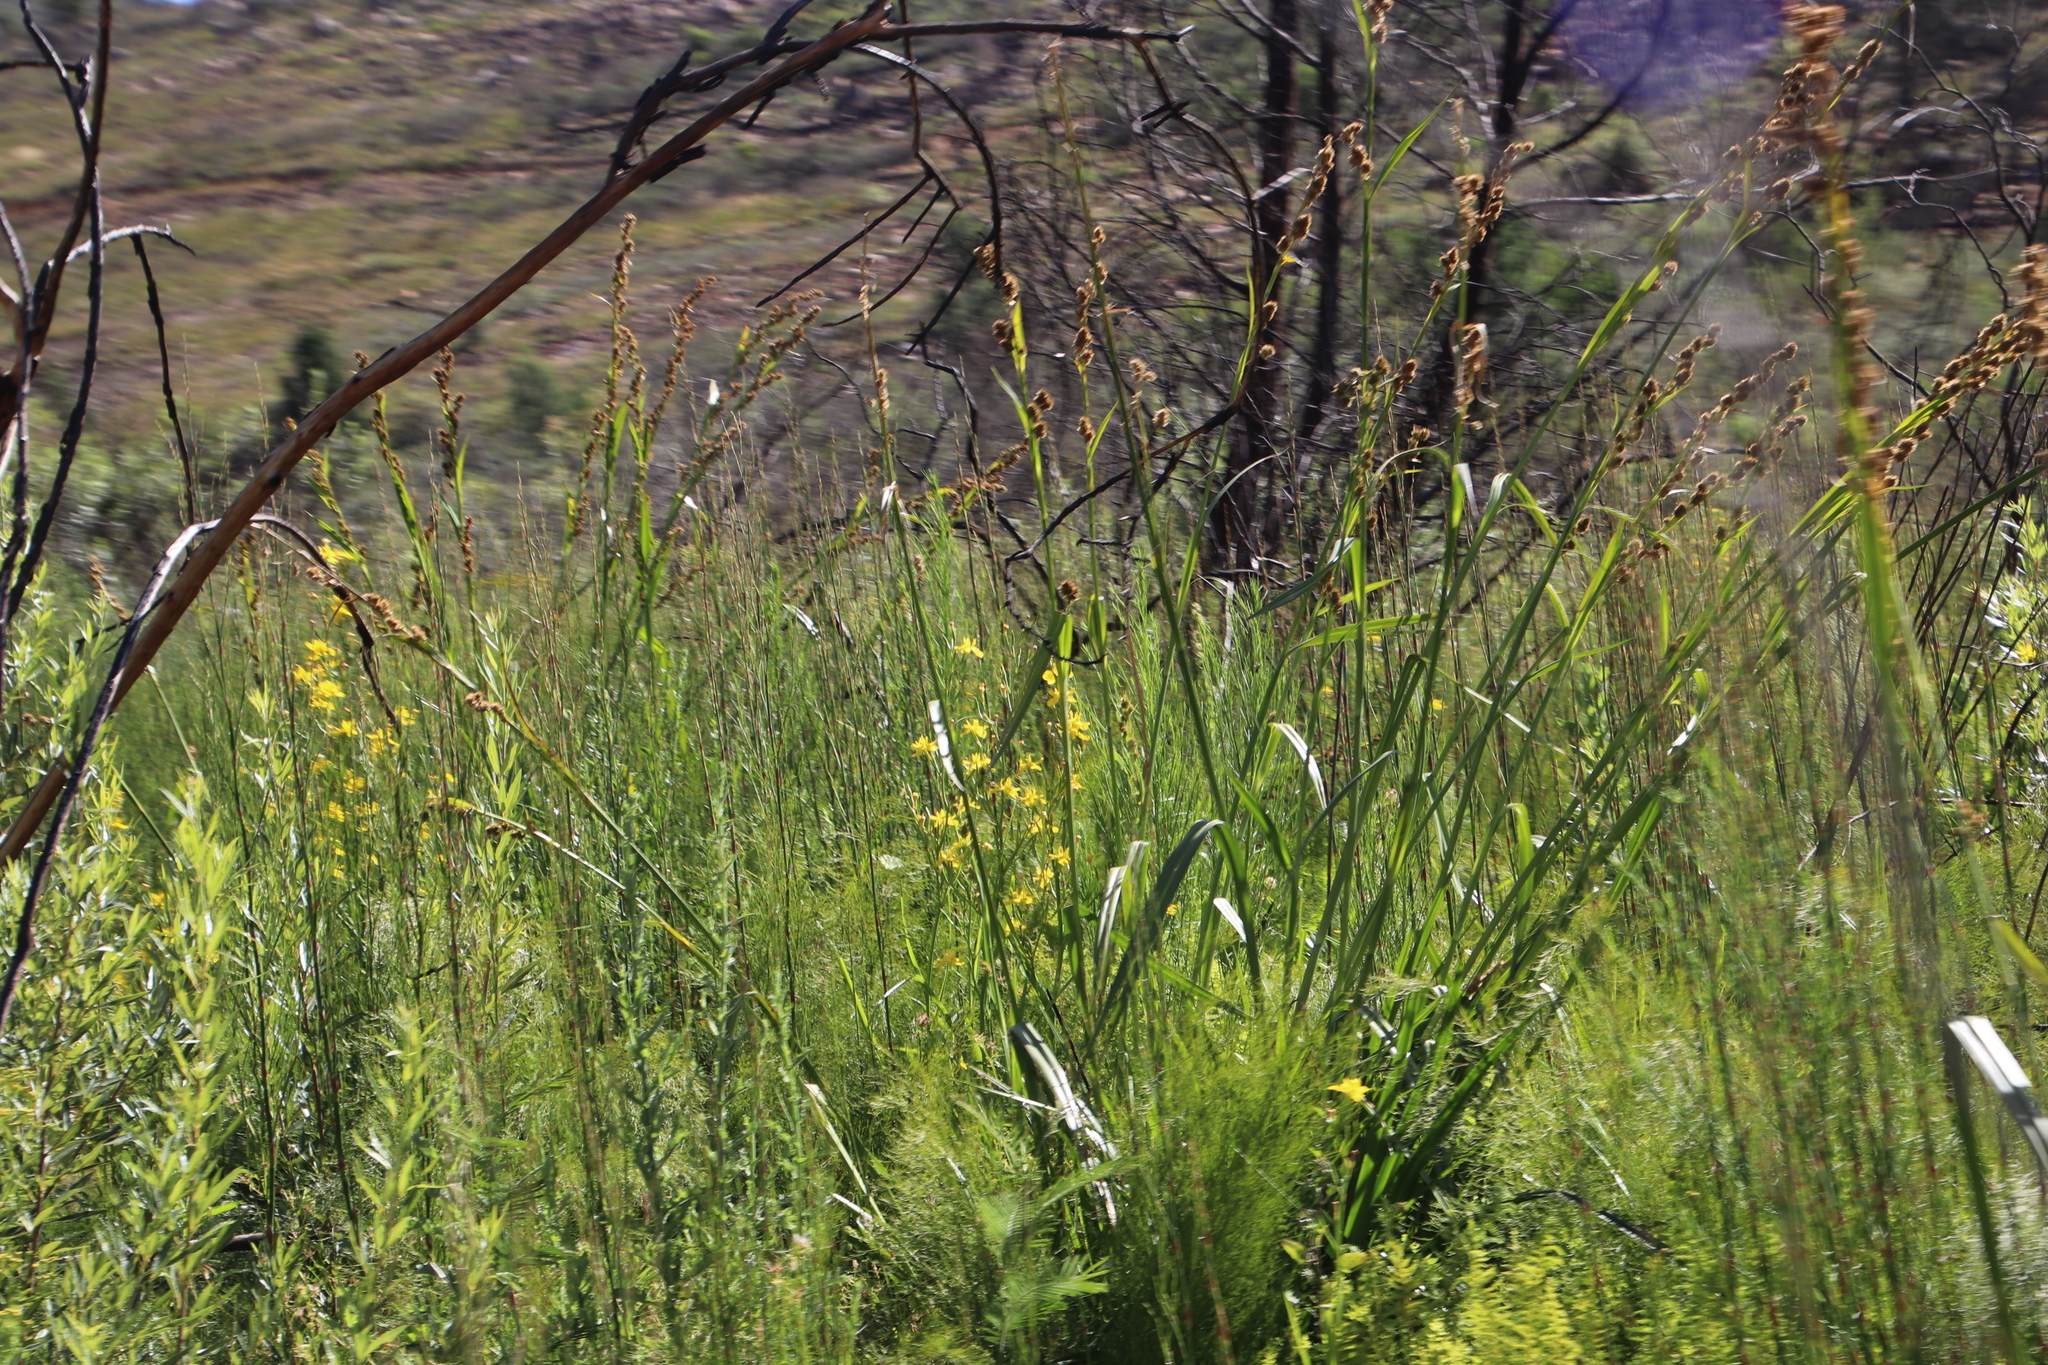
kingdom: Plantae
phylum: Tracheophyta
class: Liliopsida
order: Poales
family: Cyperaceae
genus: Carpha
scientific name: Carpha glomerata
